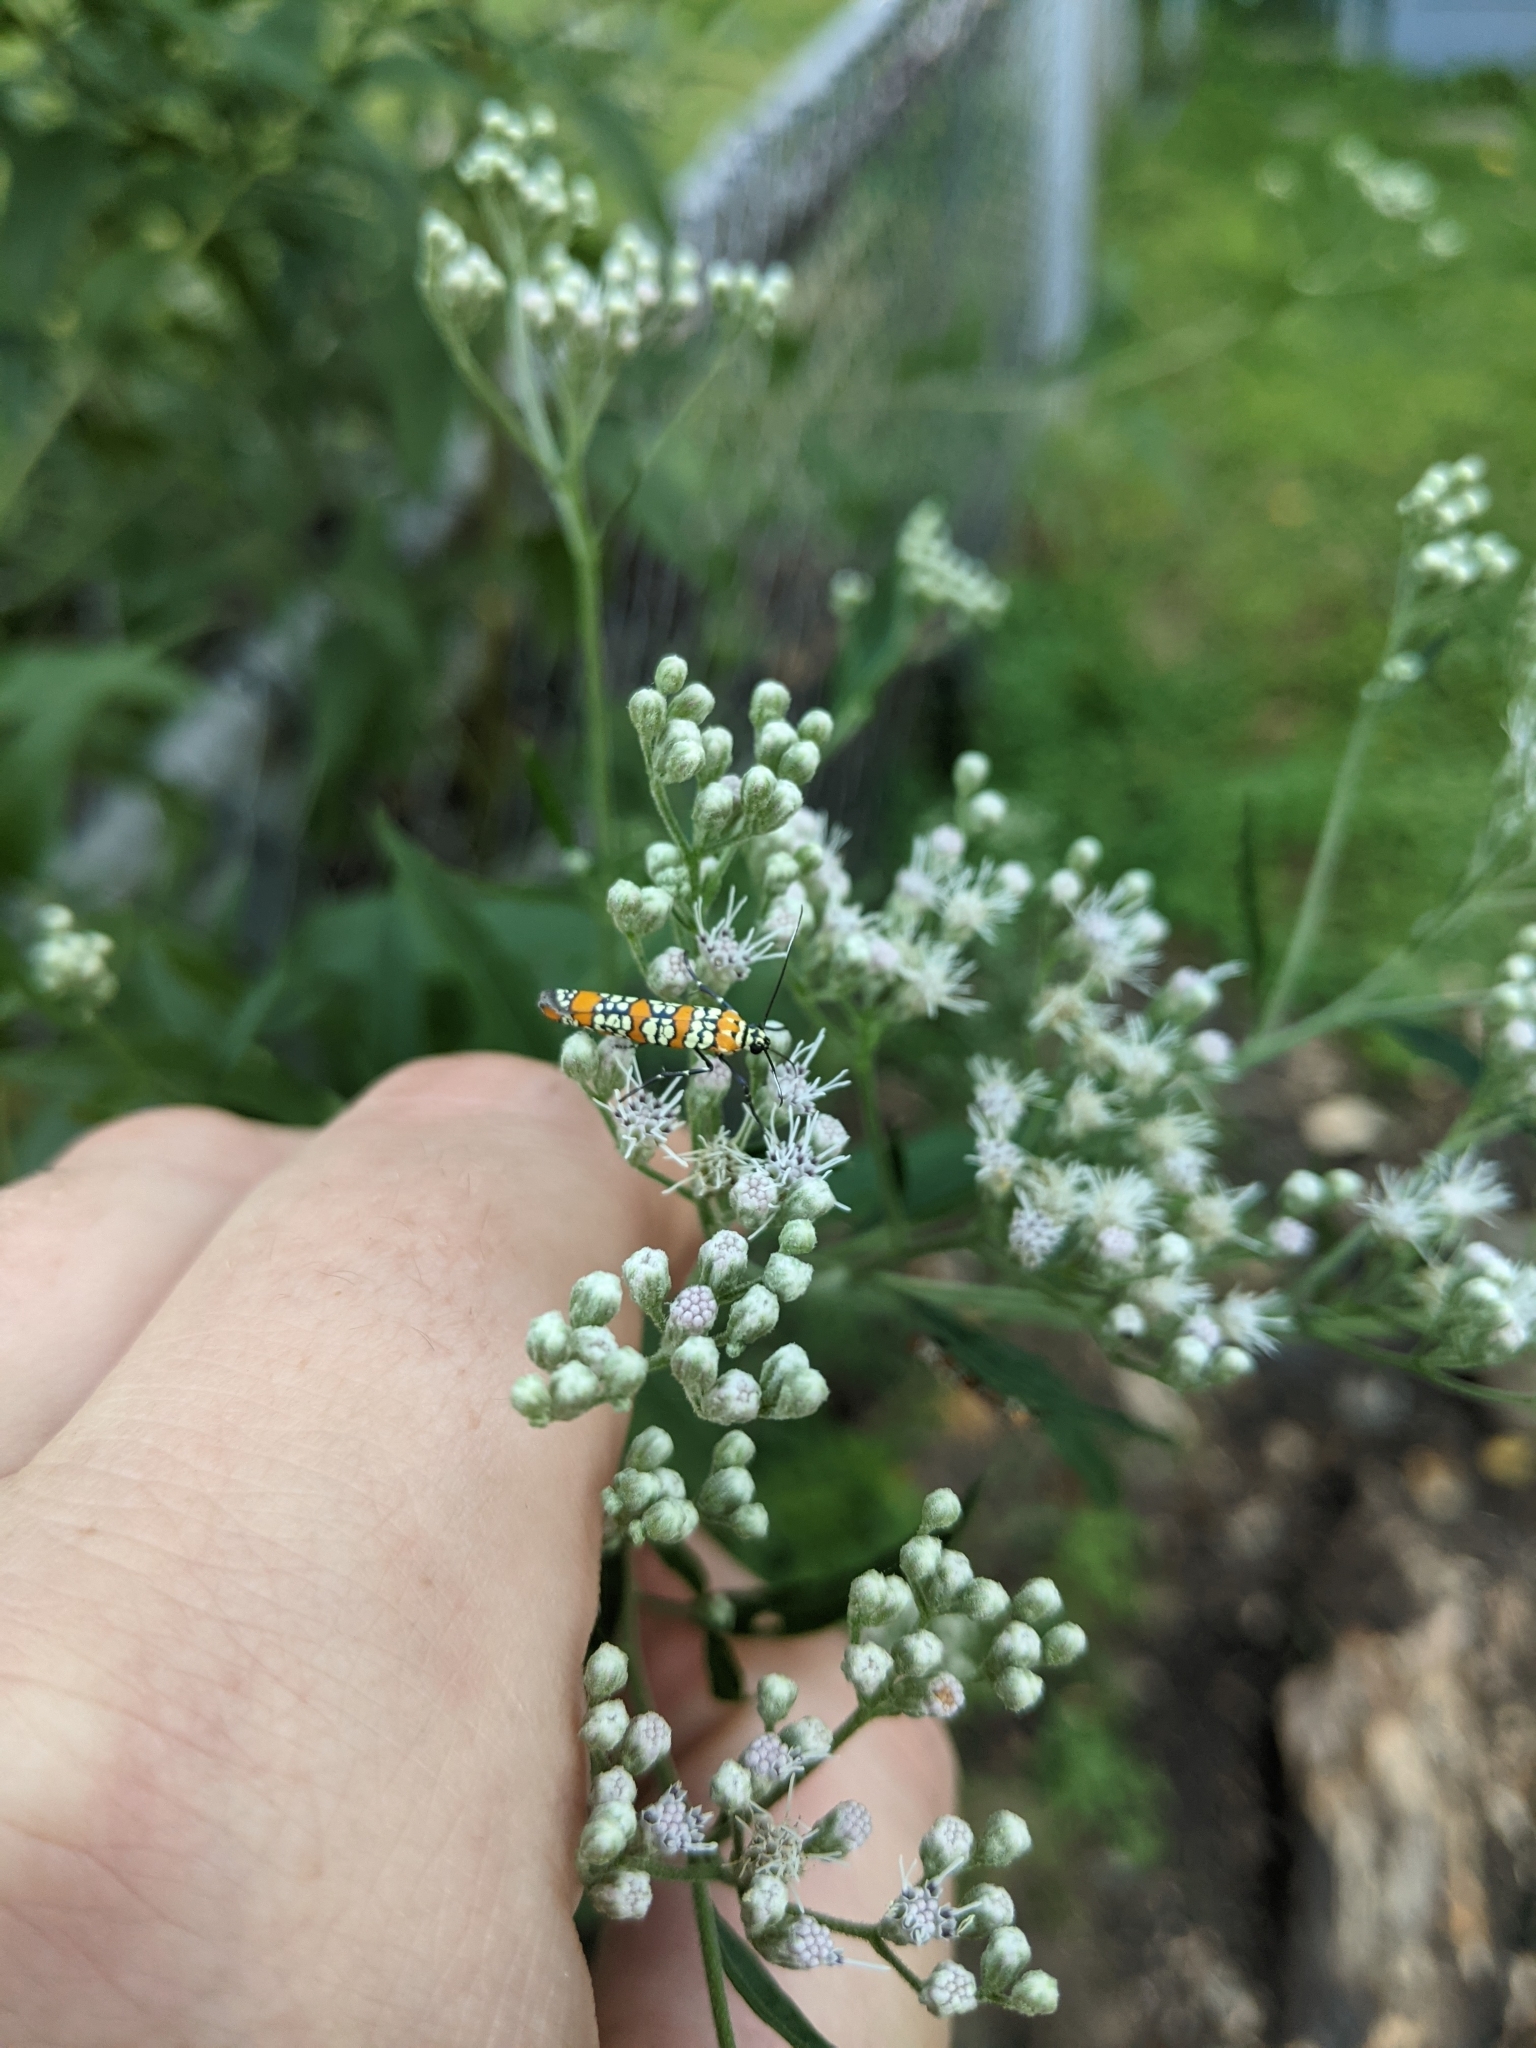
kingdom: Animalia
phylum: Arthropoda
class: Insecta
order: Lepidoptera
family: Attevidae
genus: Atteva
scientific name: Atteva punctella
